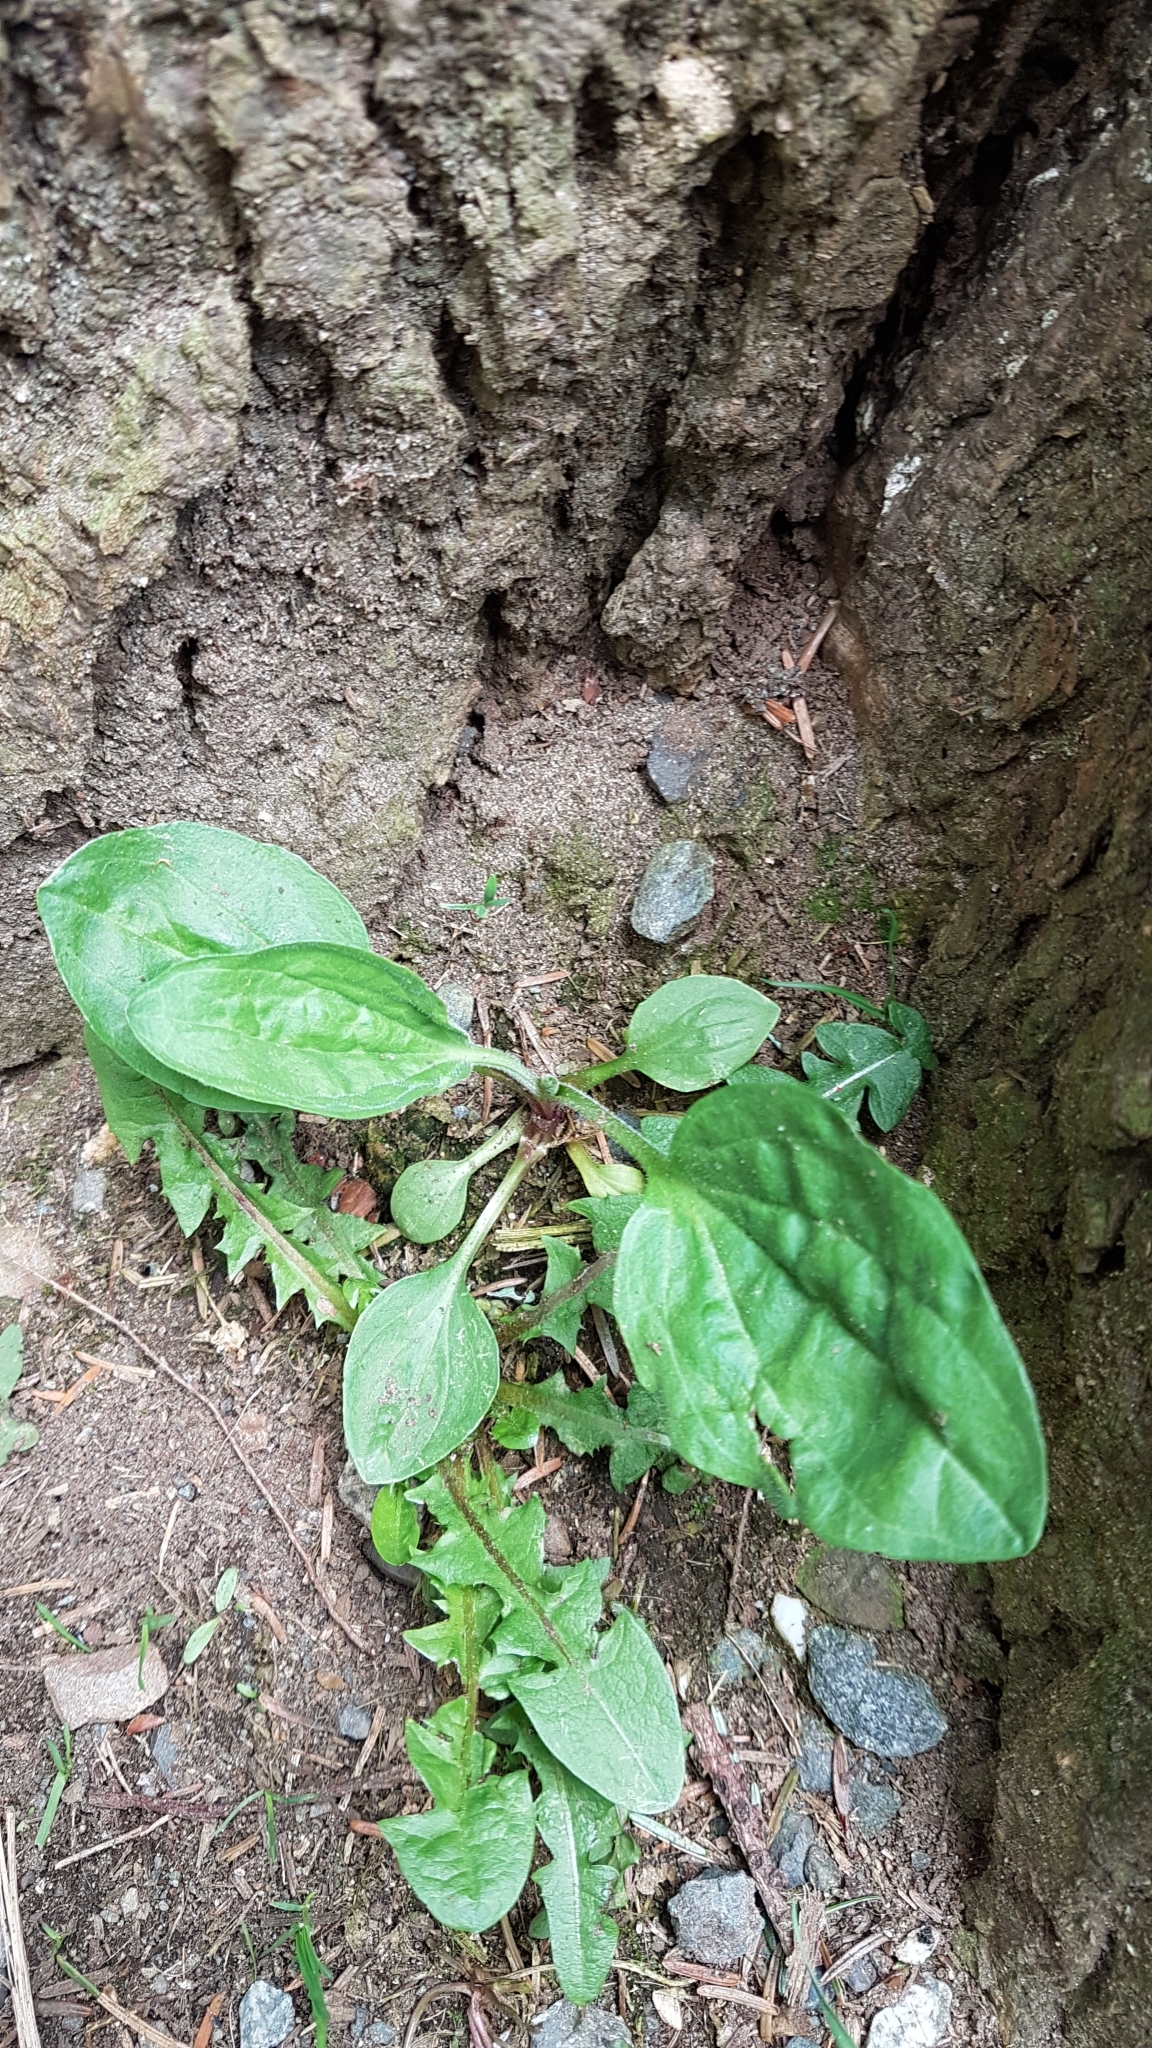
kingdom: Plantae
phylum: Tracheophyta
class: Magnoliopsida
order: Lamiales
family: Plantaginaceae
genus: Plantago
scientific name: Plantago major
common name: Common plantain
